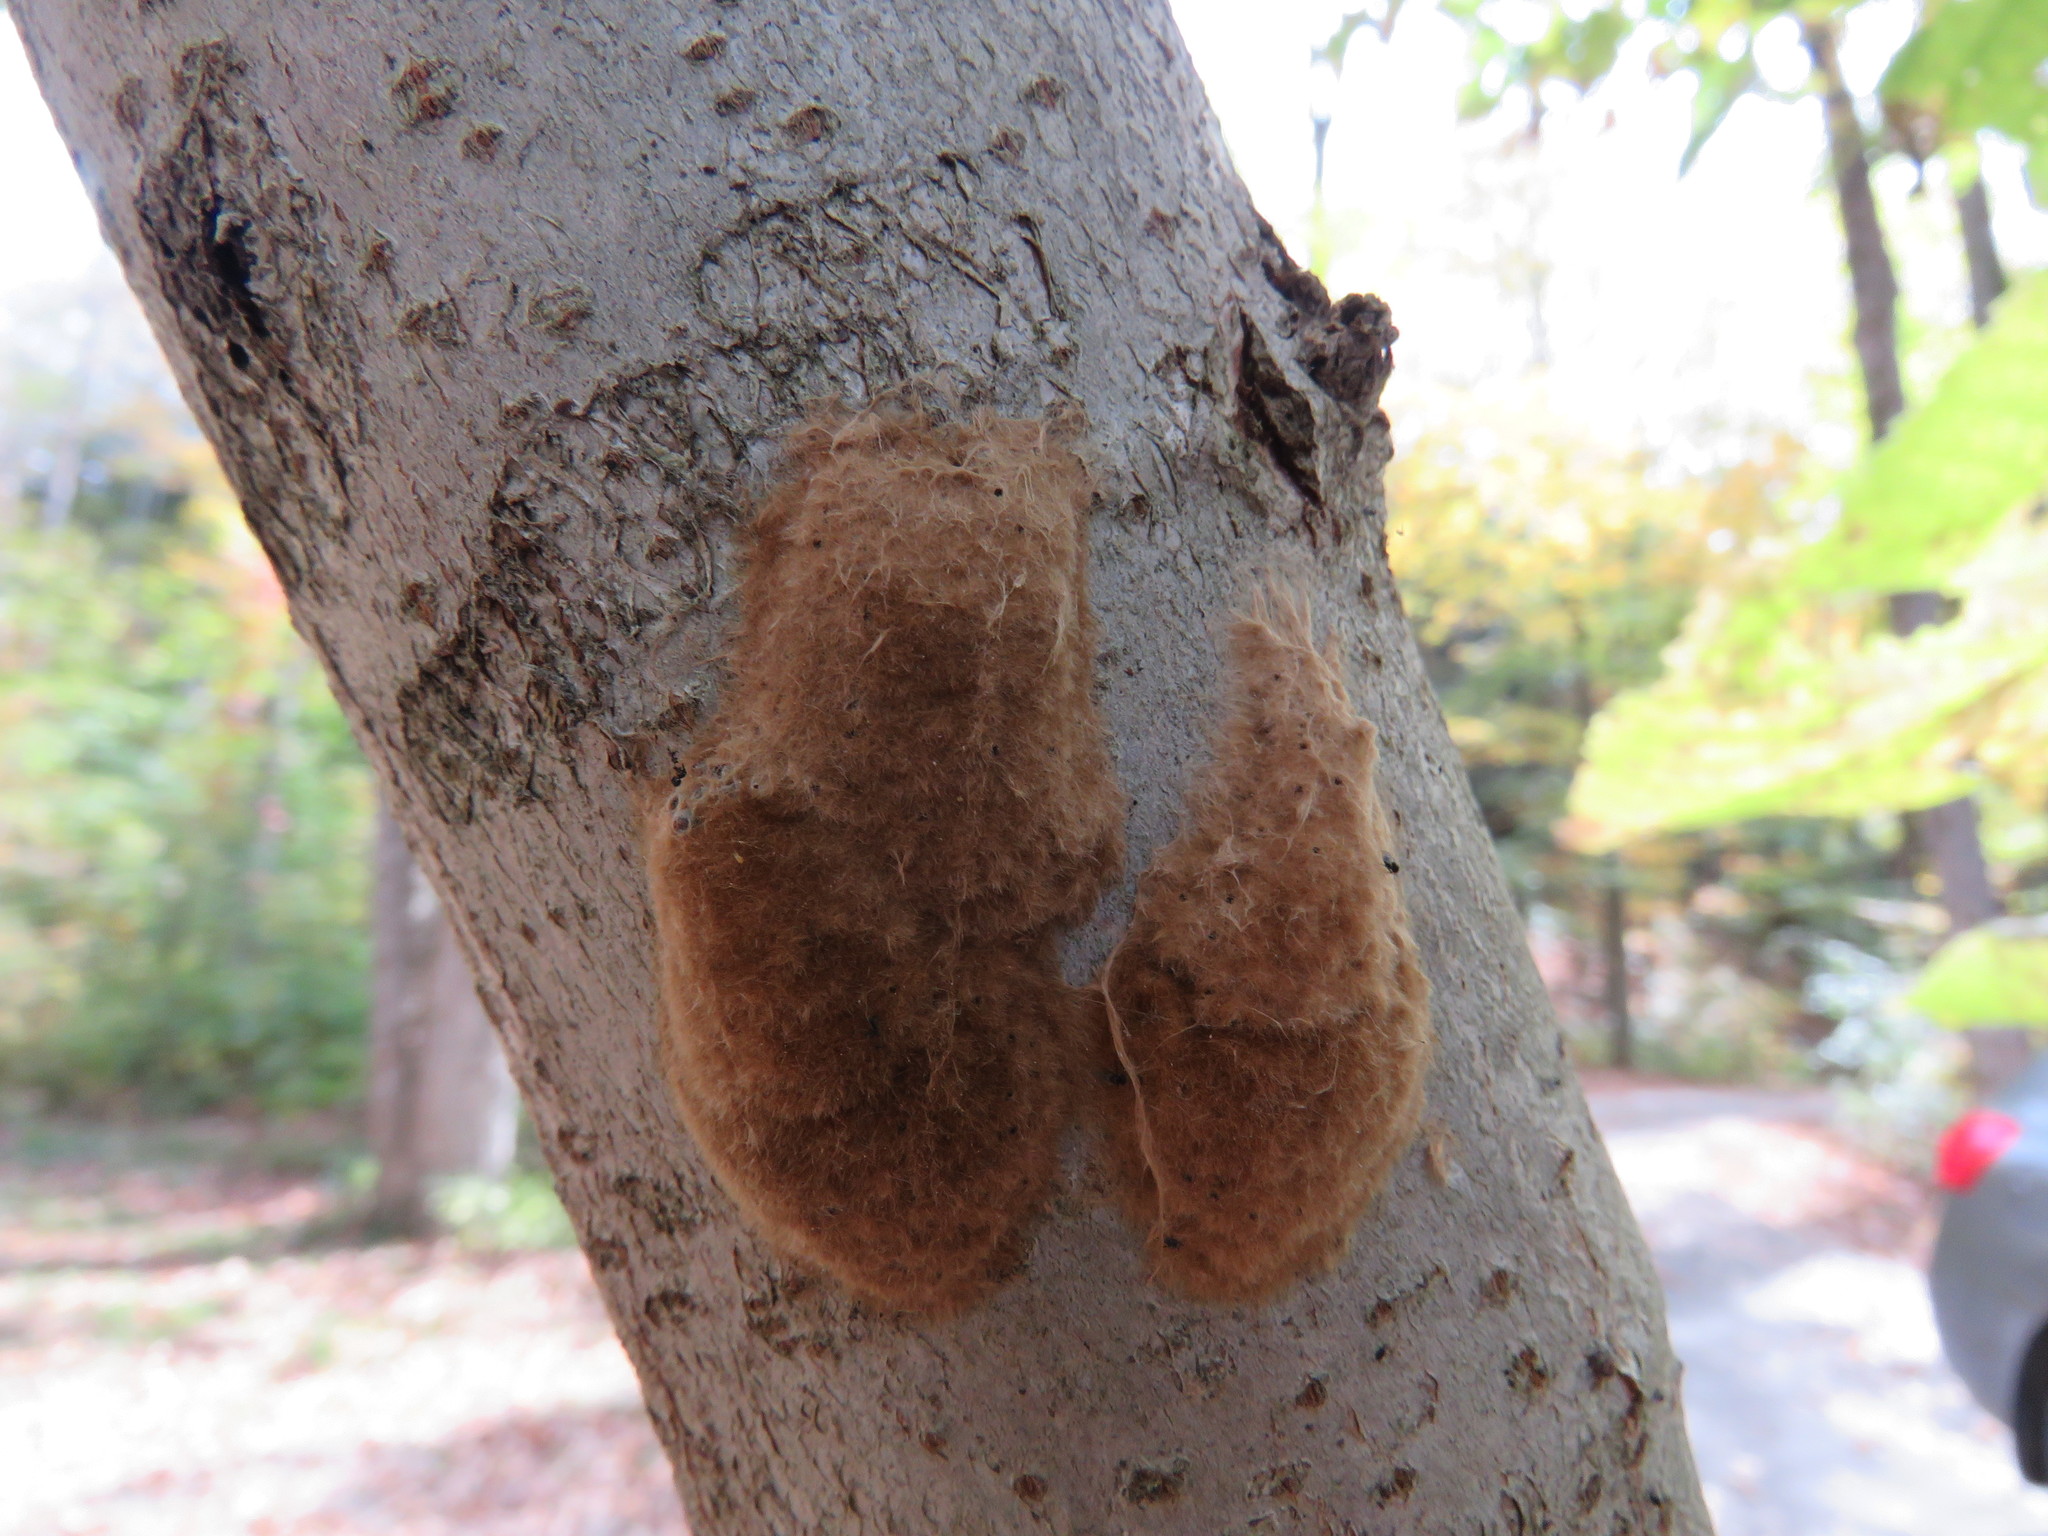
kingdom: Animalia
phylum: Arthropoda
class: Insecta
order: Lepidoptera
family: Erebidae
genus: Lymantria
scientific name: Lymantria dispar
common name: Gypsy moth
